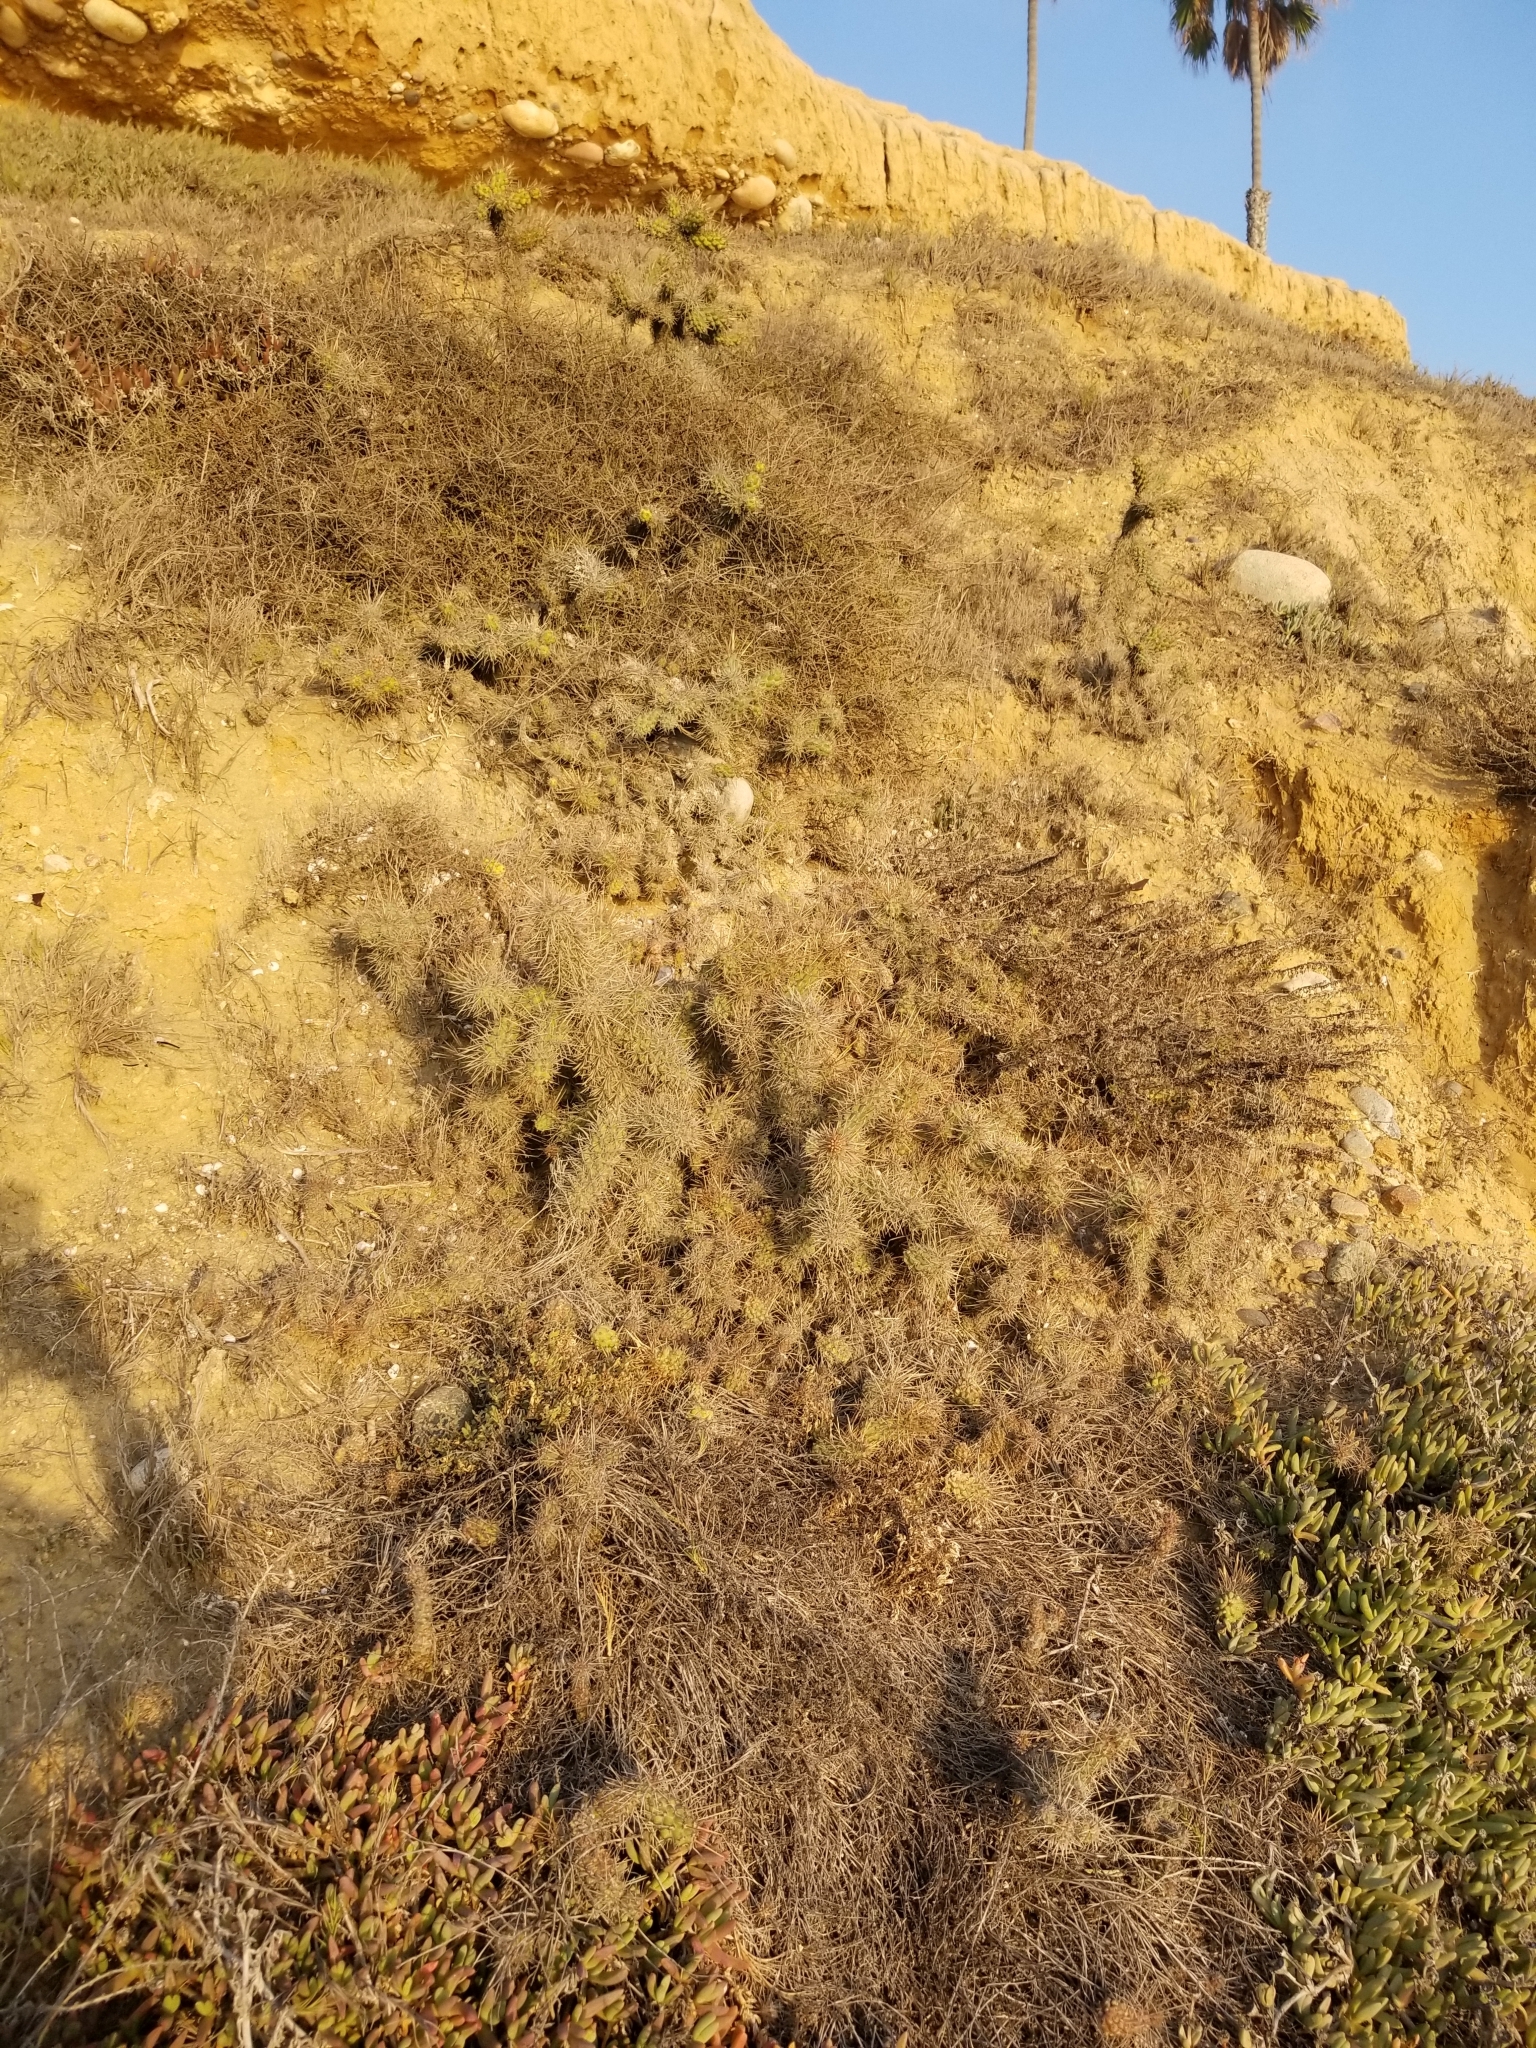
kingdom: Plantae
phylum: Tracheophyta
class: Magnoliopsida
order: Caryophyllales
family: Cactaceae
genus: Cylindropuntia
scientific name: Cylindropuntia prolifera
